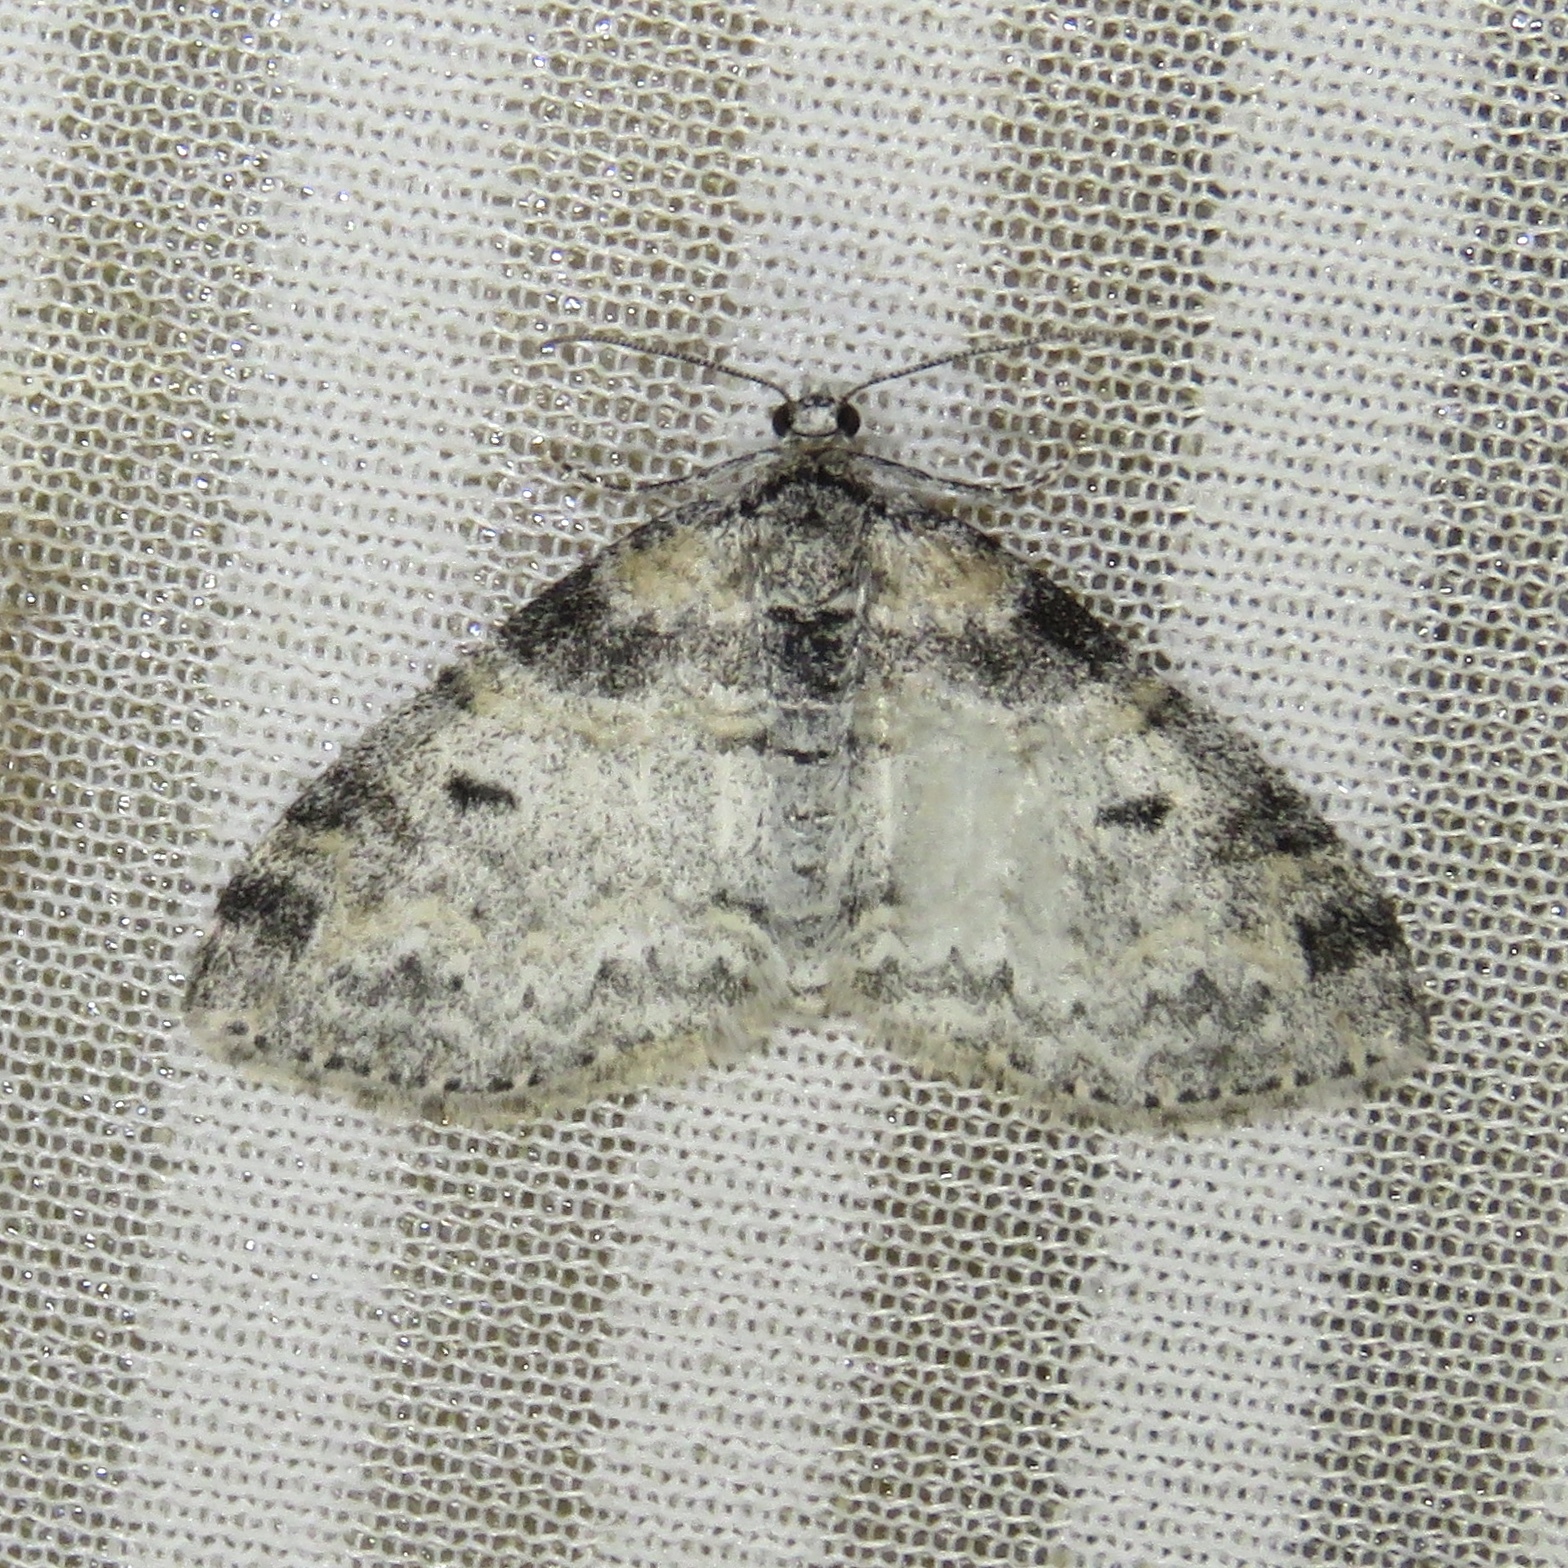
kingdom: Animalia
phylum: Arthropoda
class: Insecta
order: Lepidoptera
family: Geometridae
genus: Lobophora
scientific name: Lobophora nivigerata
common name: Powdered bigwing
